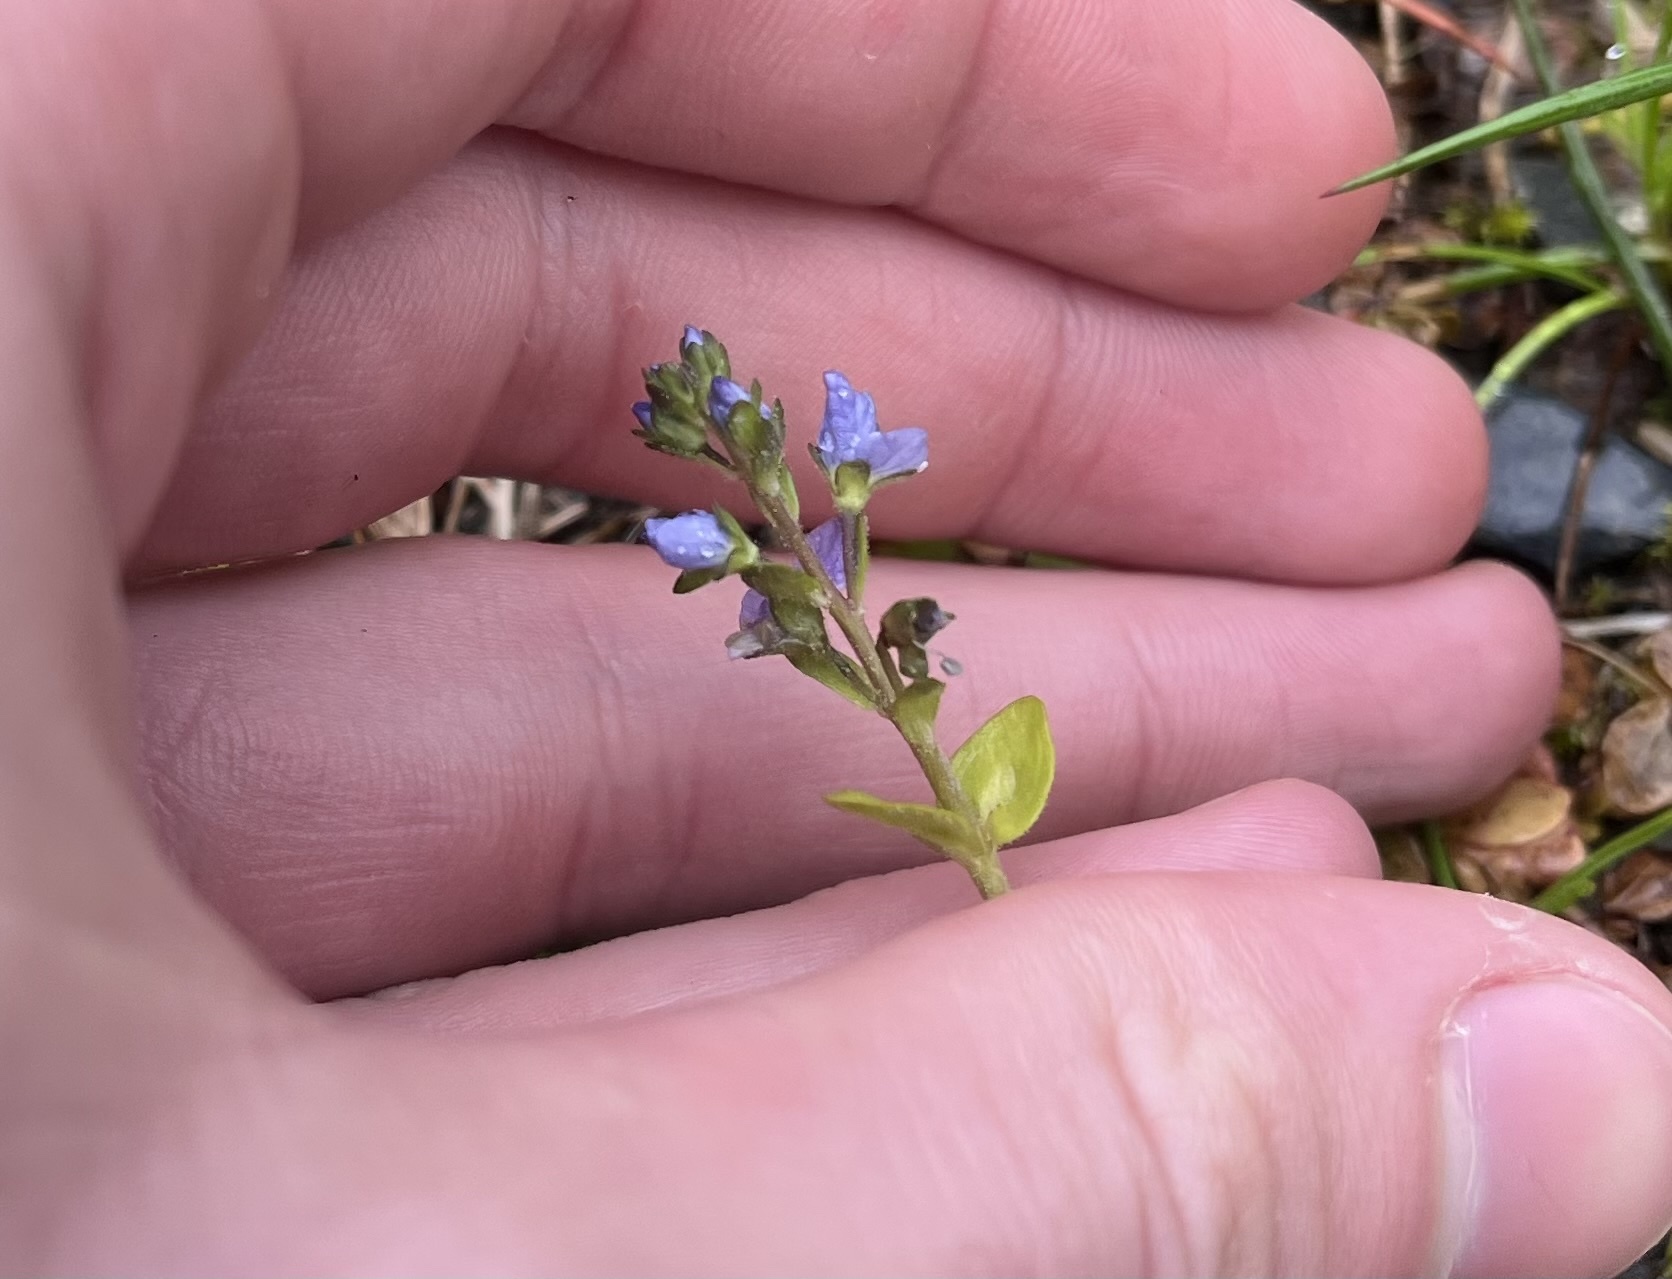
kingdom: Plantae
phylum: Tracheophyta
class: Magnoliopsida
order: Lamiales
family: Plantaginaceae
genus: Veronica
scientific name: Veronica serpyllifolia
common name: Thyme-leaved speedwell
